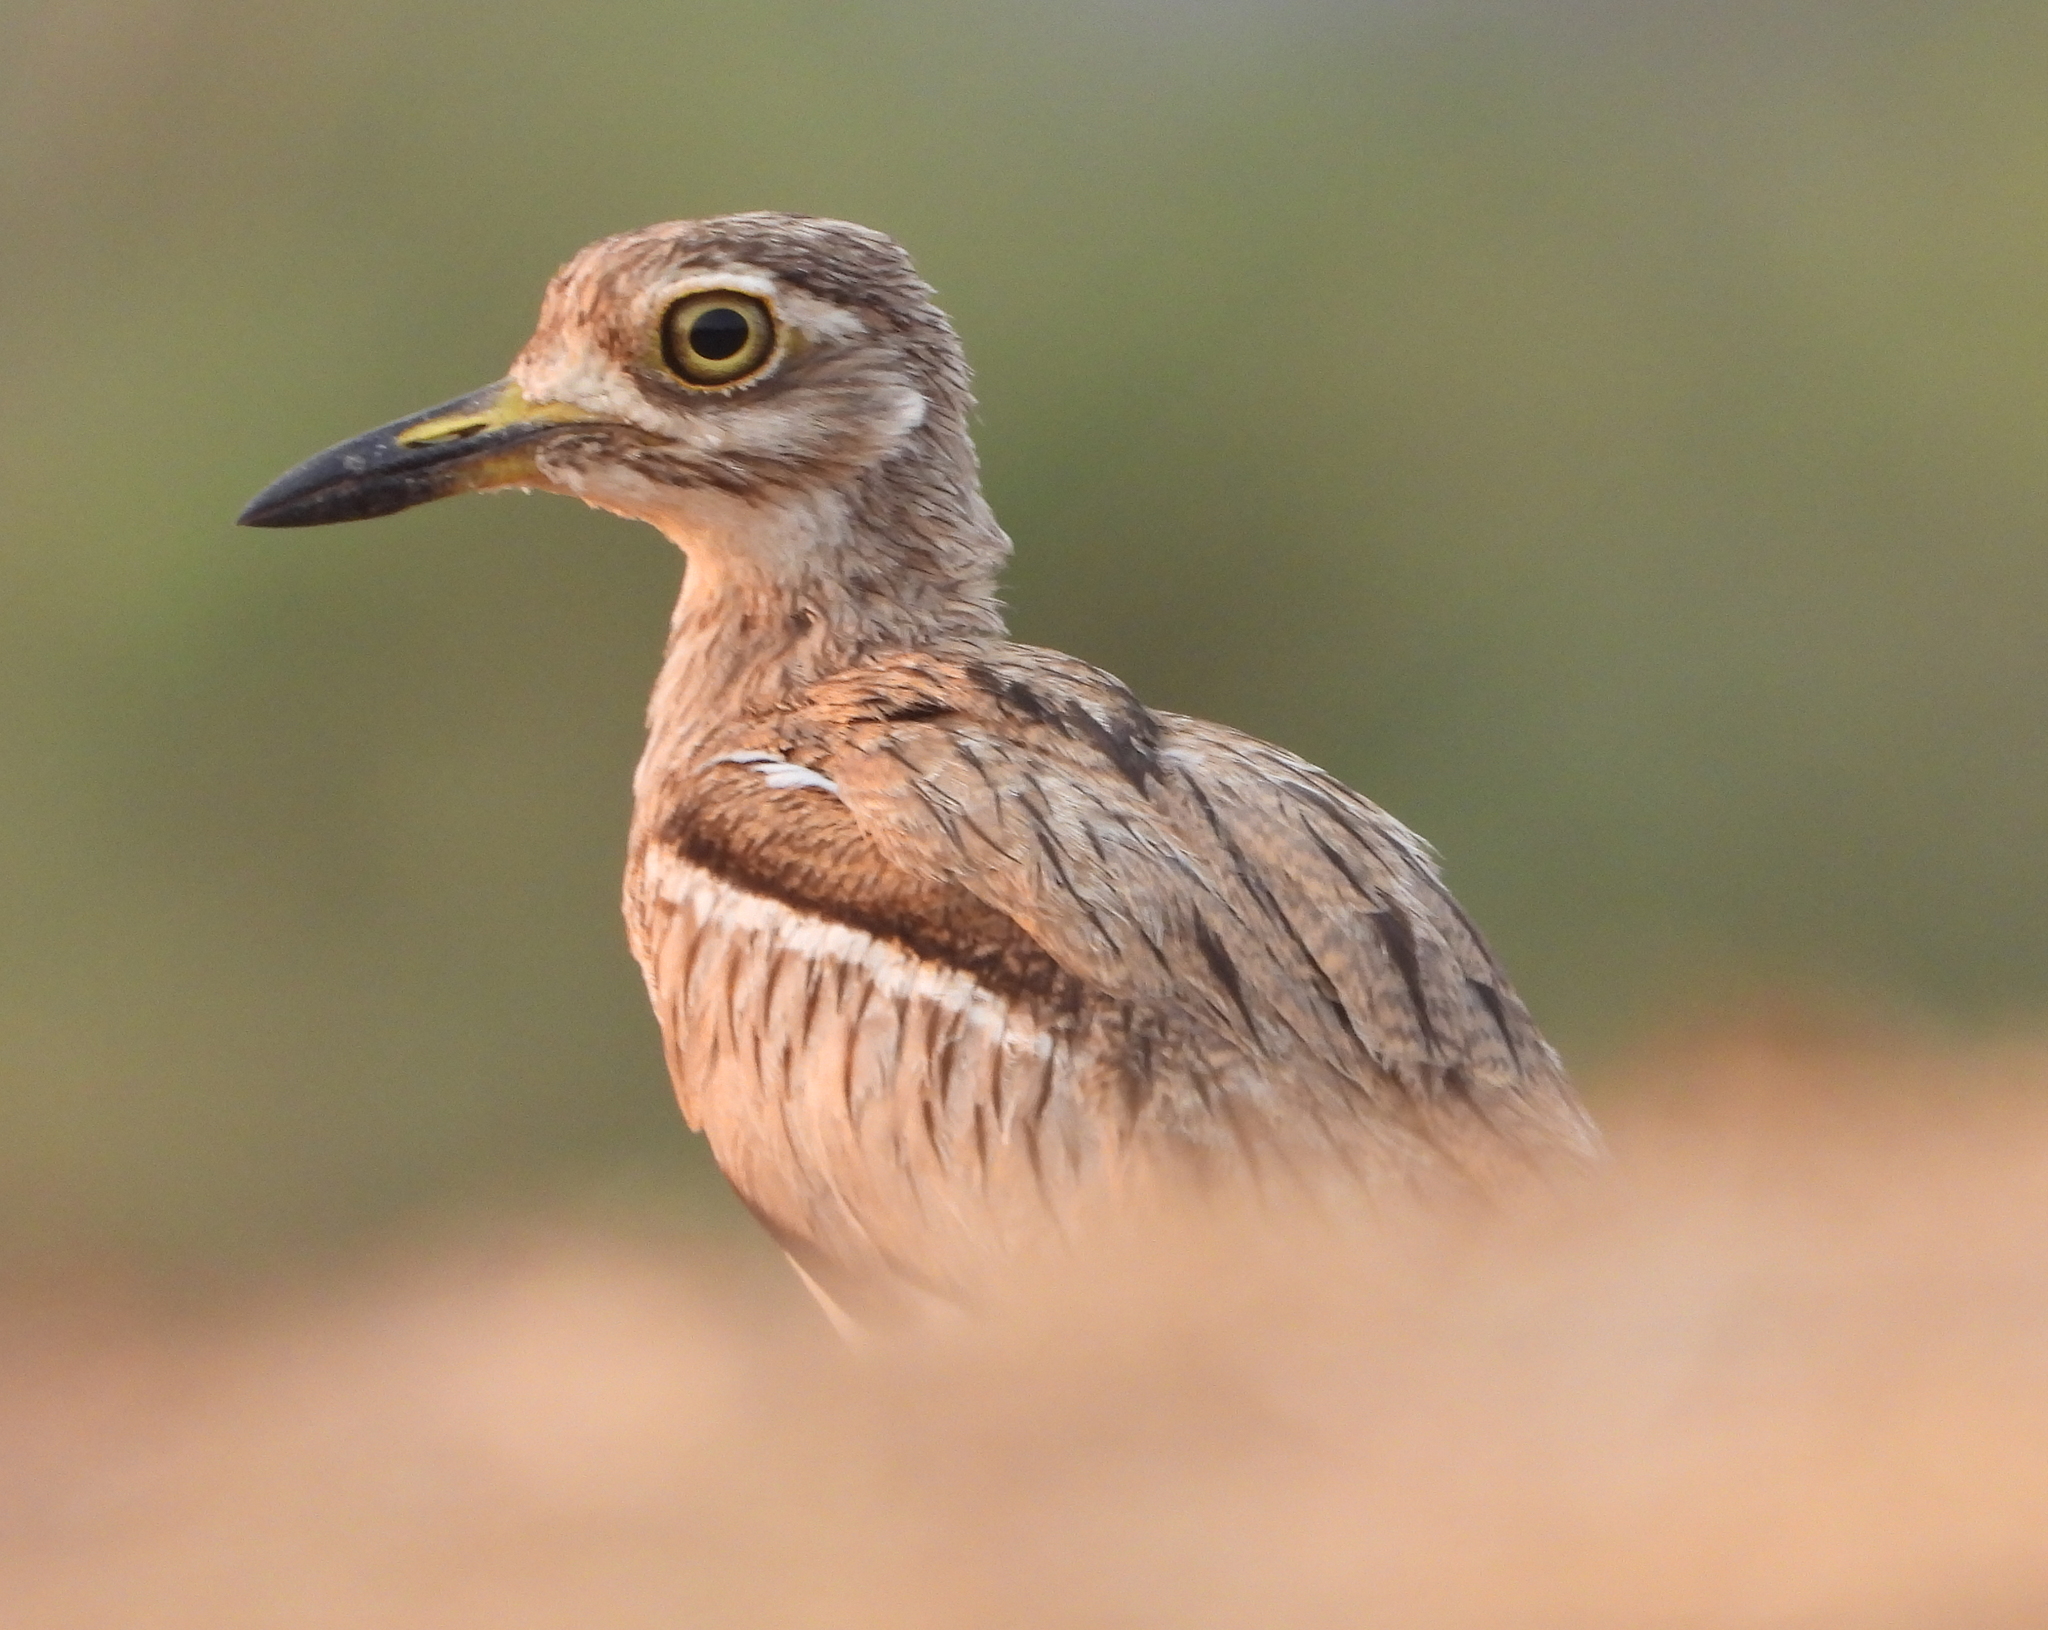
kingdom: Animalia
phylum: Chordata
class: Aves
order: Charadriiformes
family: Burhinidae
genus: Burhinus
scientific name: Burhinus vermiculatus
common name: Water thick-knee
